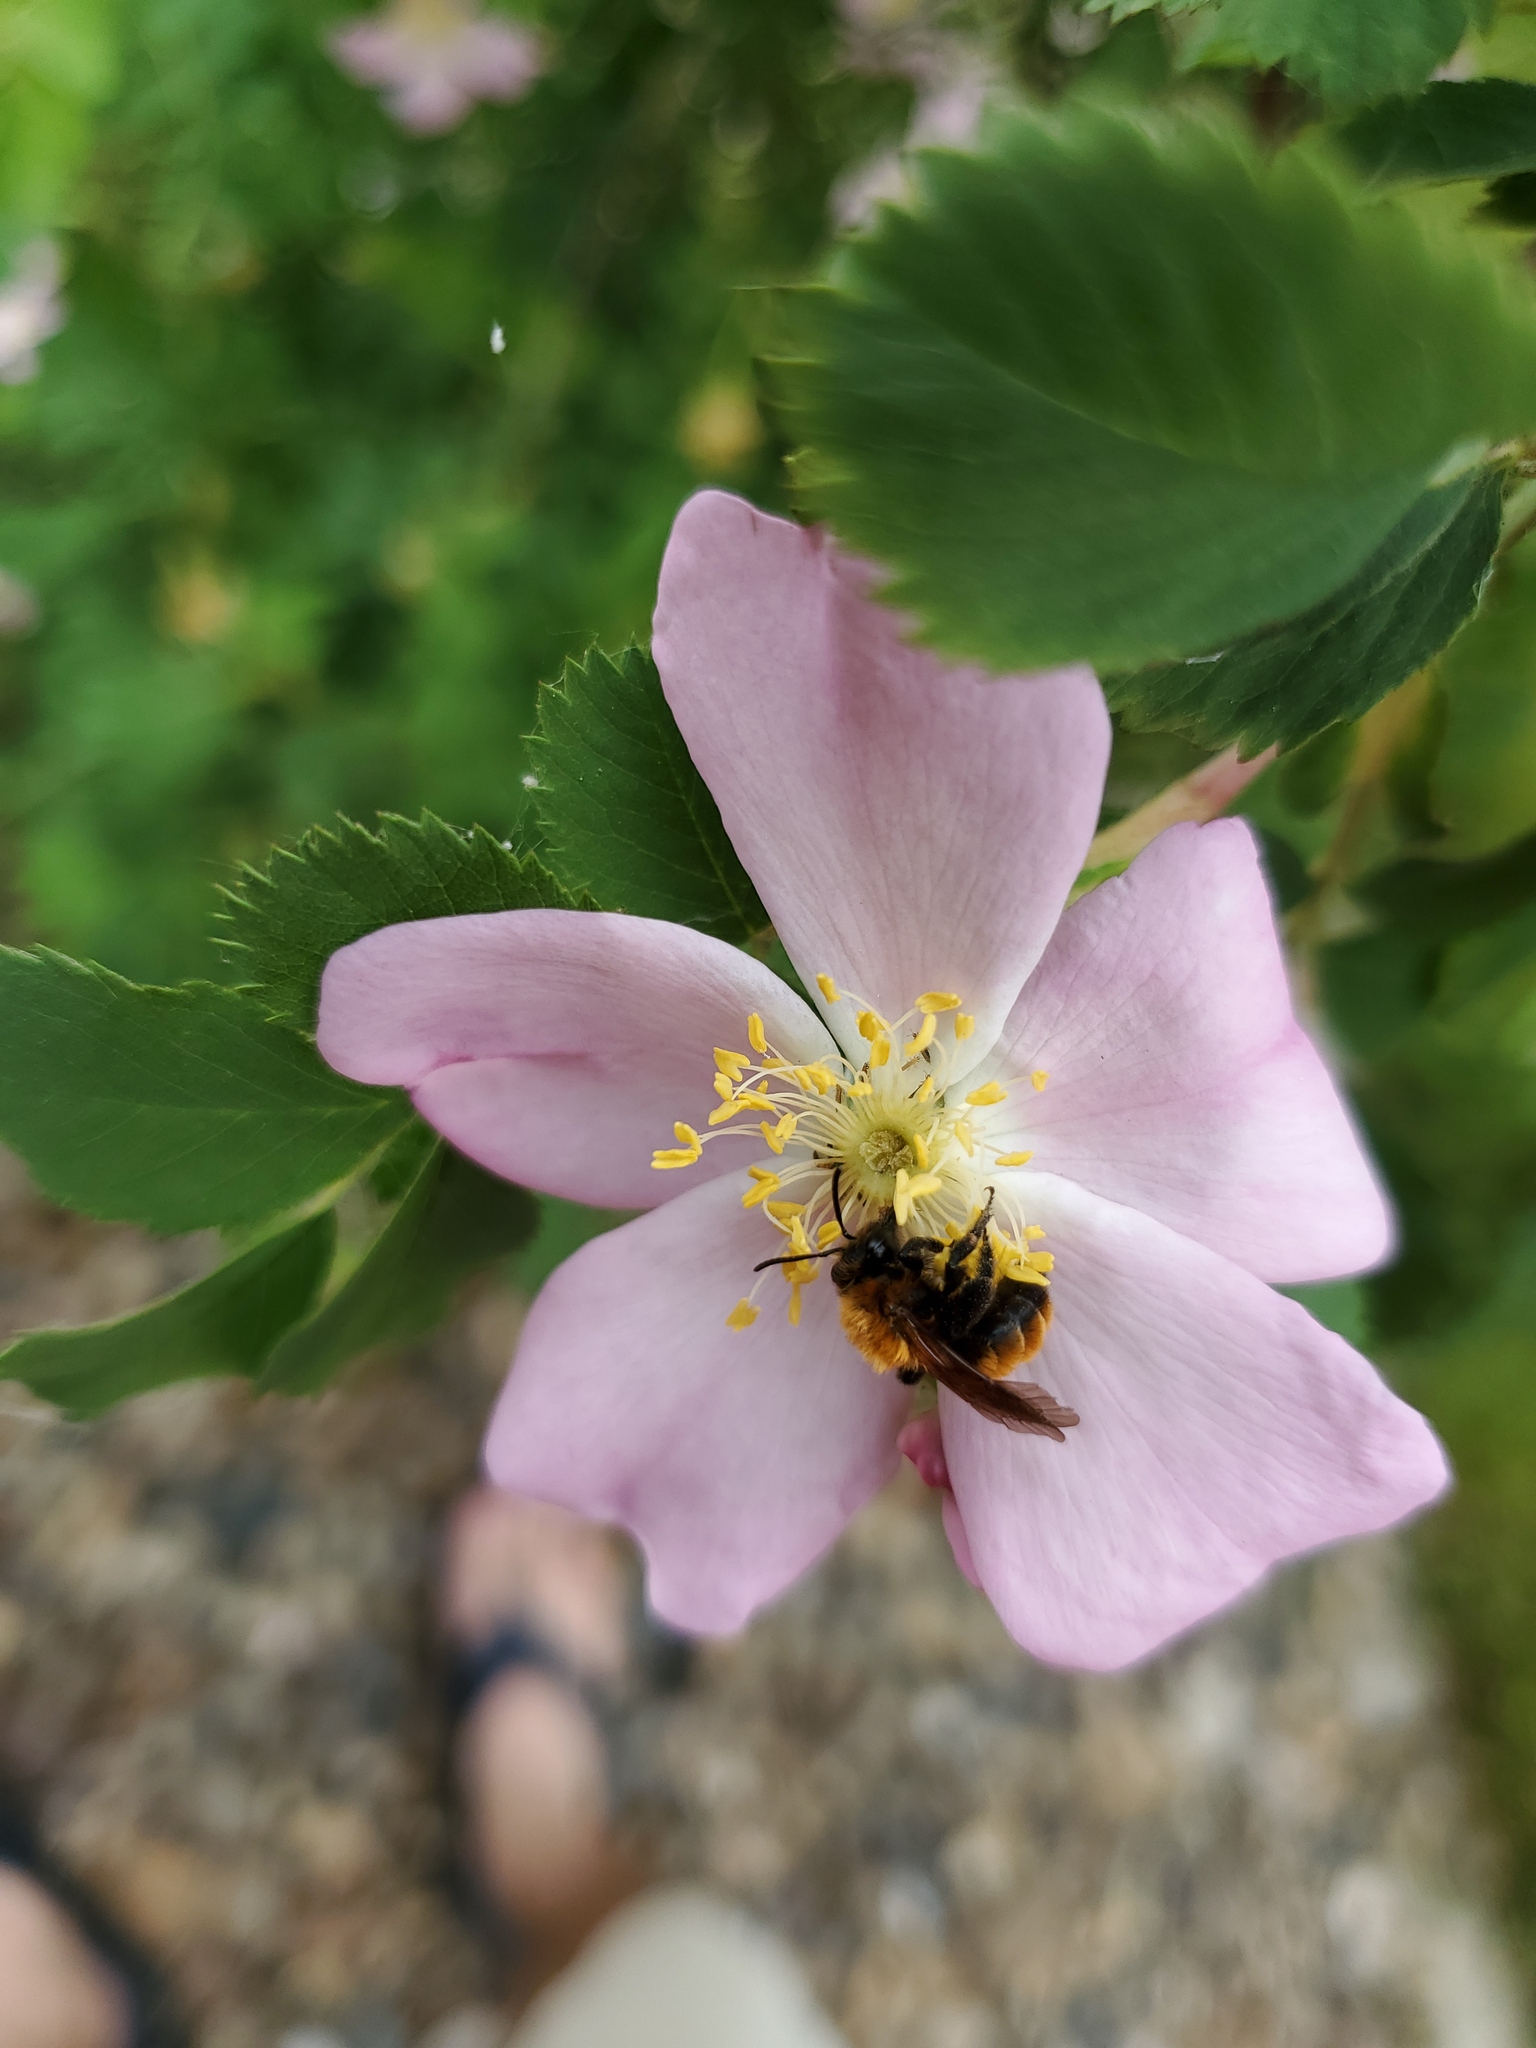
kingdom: Animalia
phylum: Arthropoda
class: Insecta
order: Hymenoptera
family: Andrenidae
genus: Andrena
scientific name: Andrena milwaukeensis
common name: Milwaukee mining bee
